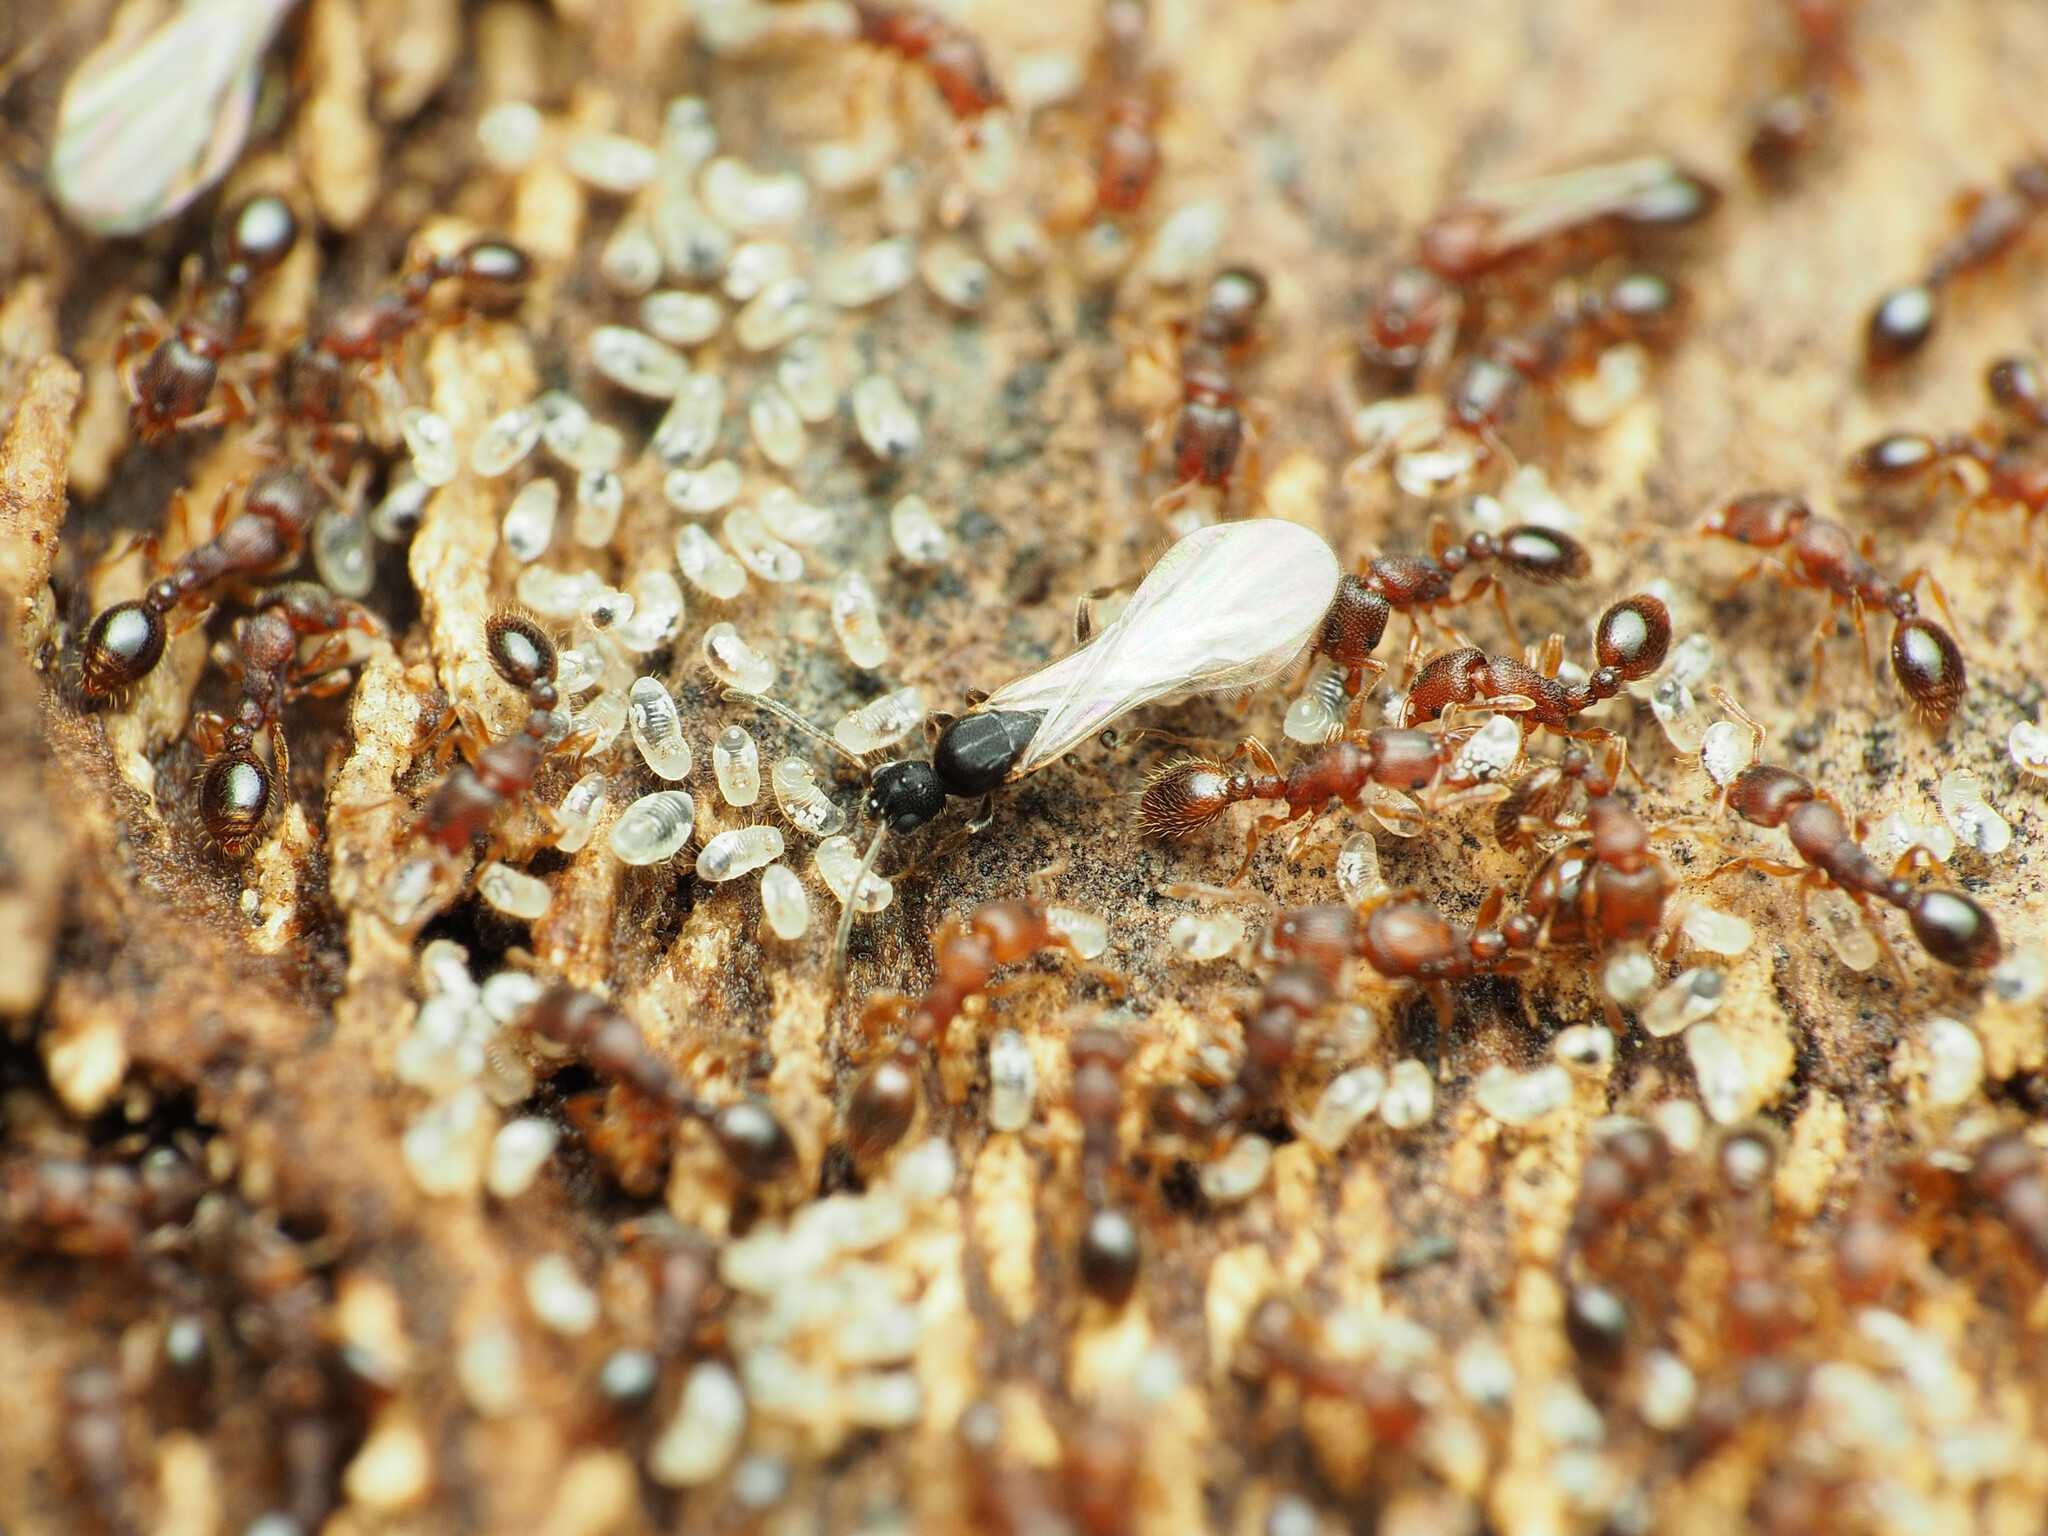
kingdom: Animalia
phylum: Arthropoda
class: Insecta
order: Hymenoptera
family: Formicidae
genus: Vollenhovia
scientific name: Vollenhovia emeryi
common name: Ant
